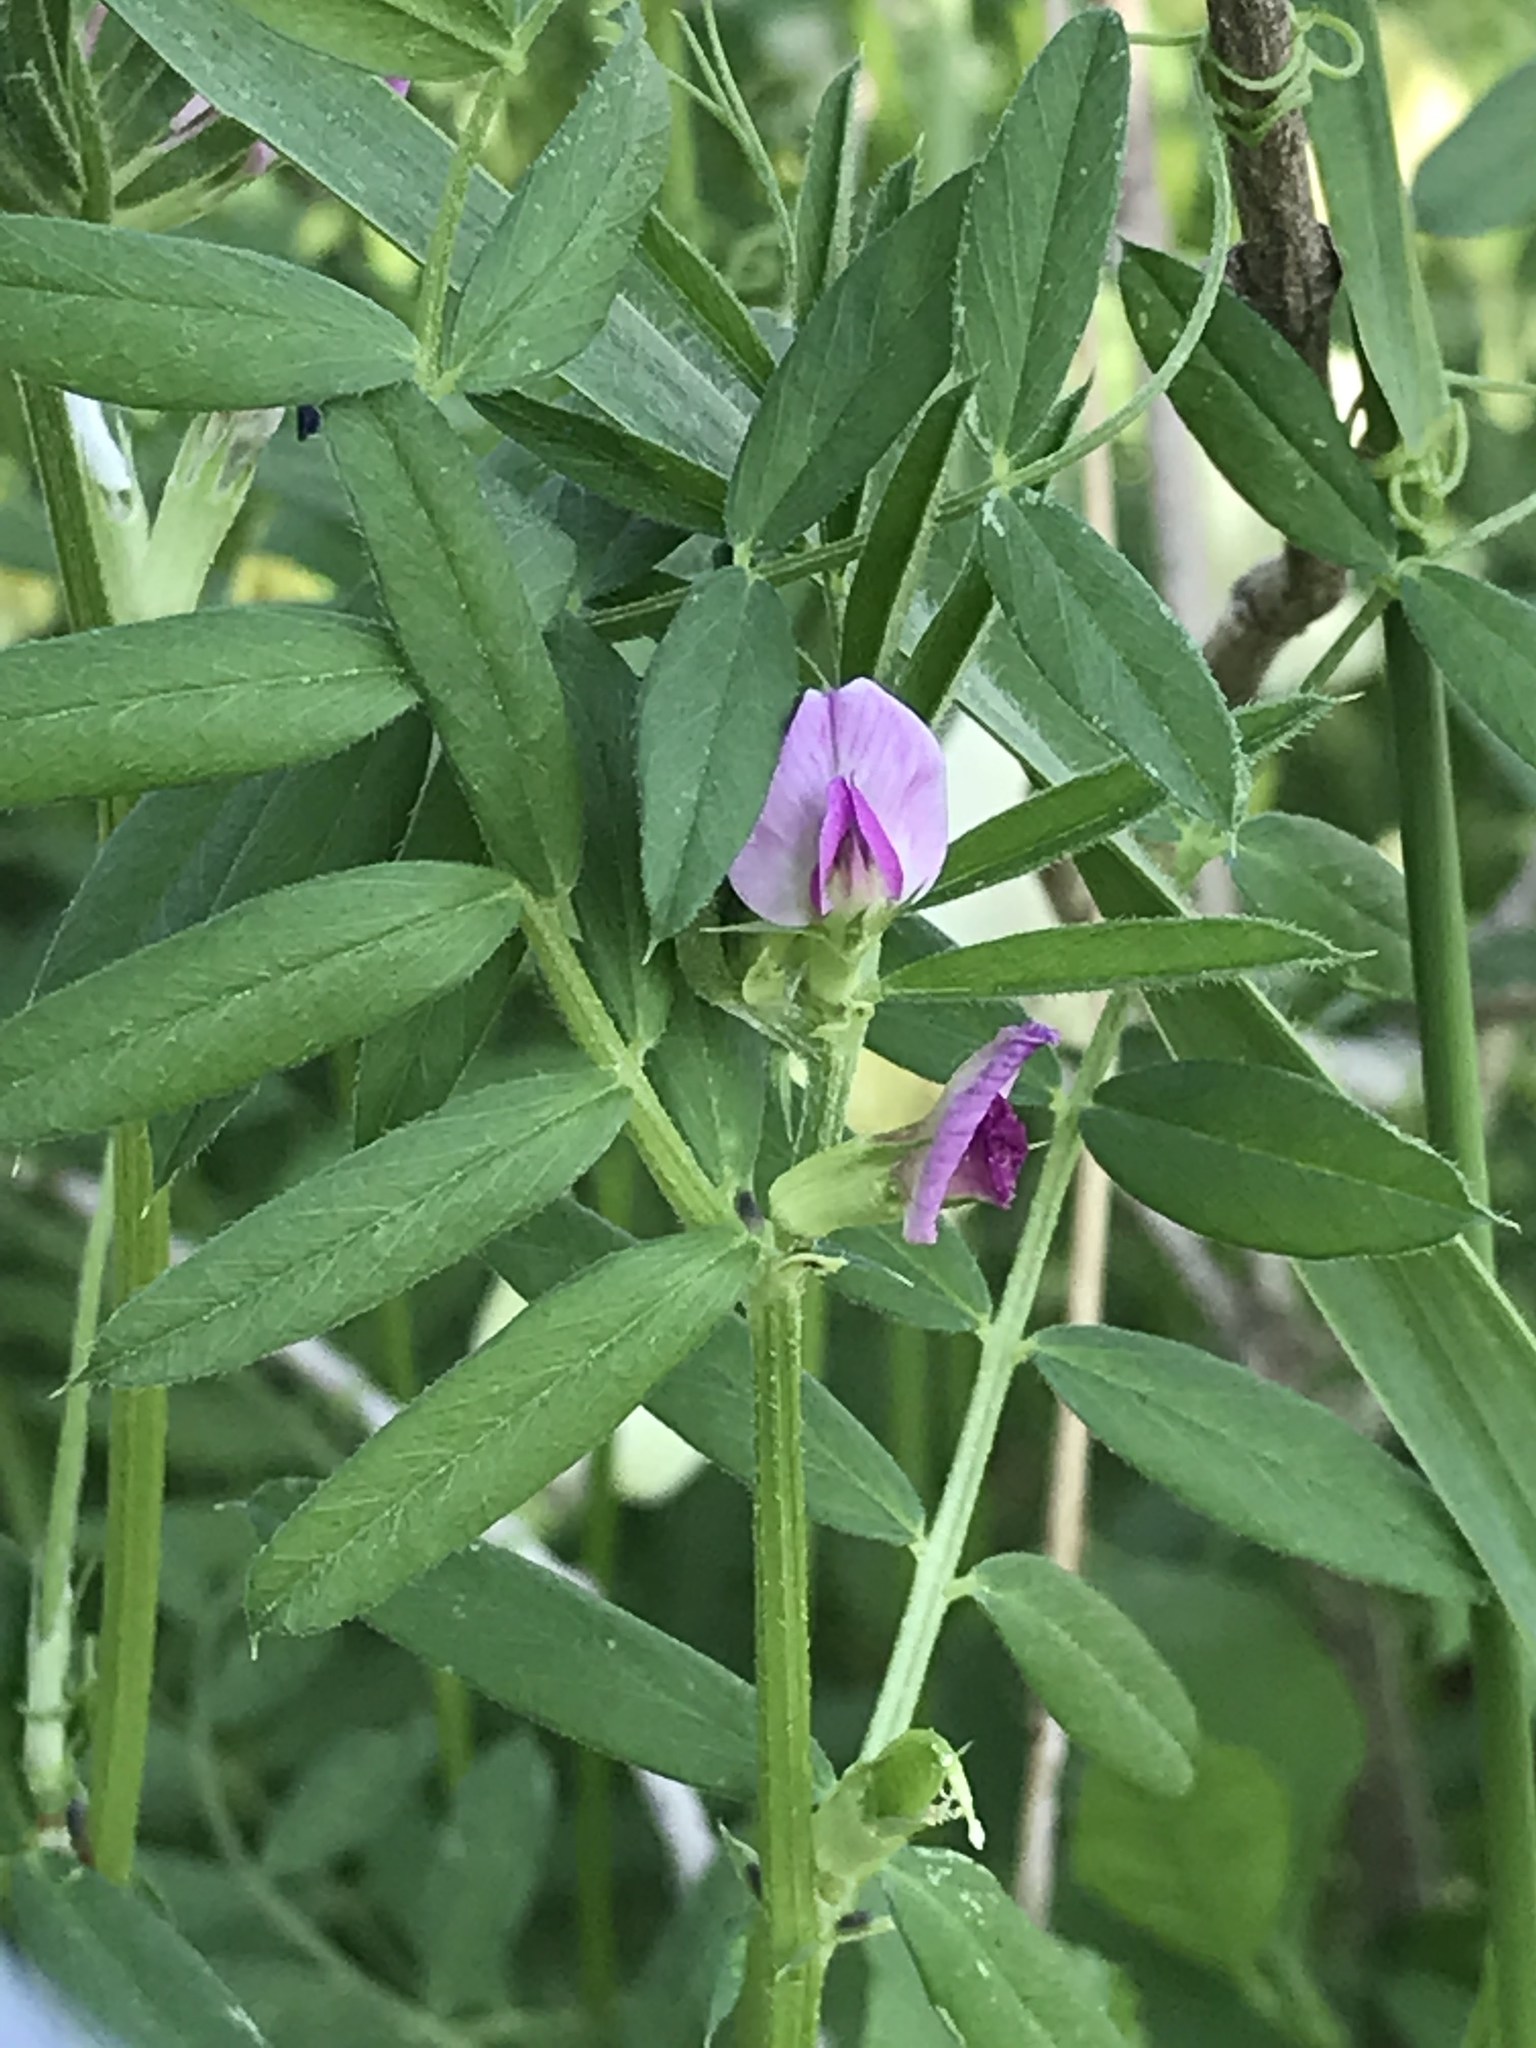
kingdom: Plantae
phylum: Tracheophyta
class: Magnoliopsida
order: Fabales
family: Fabaceae
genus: Vicia
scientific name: Vicia sativa
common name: Garden vetch
